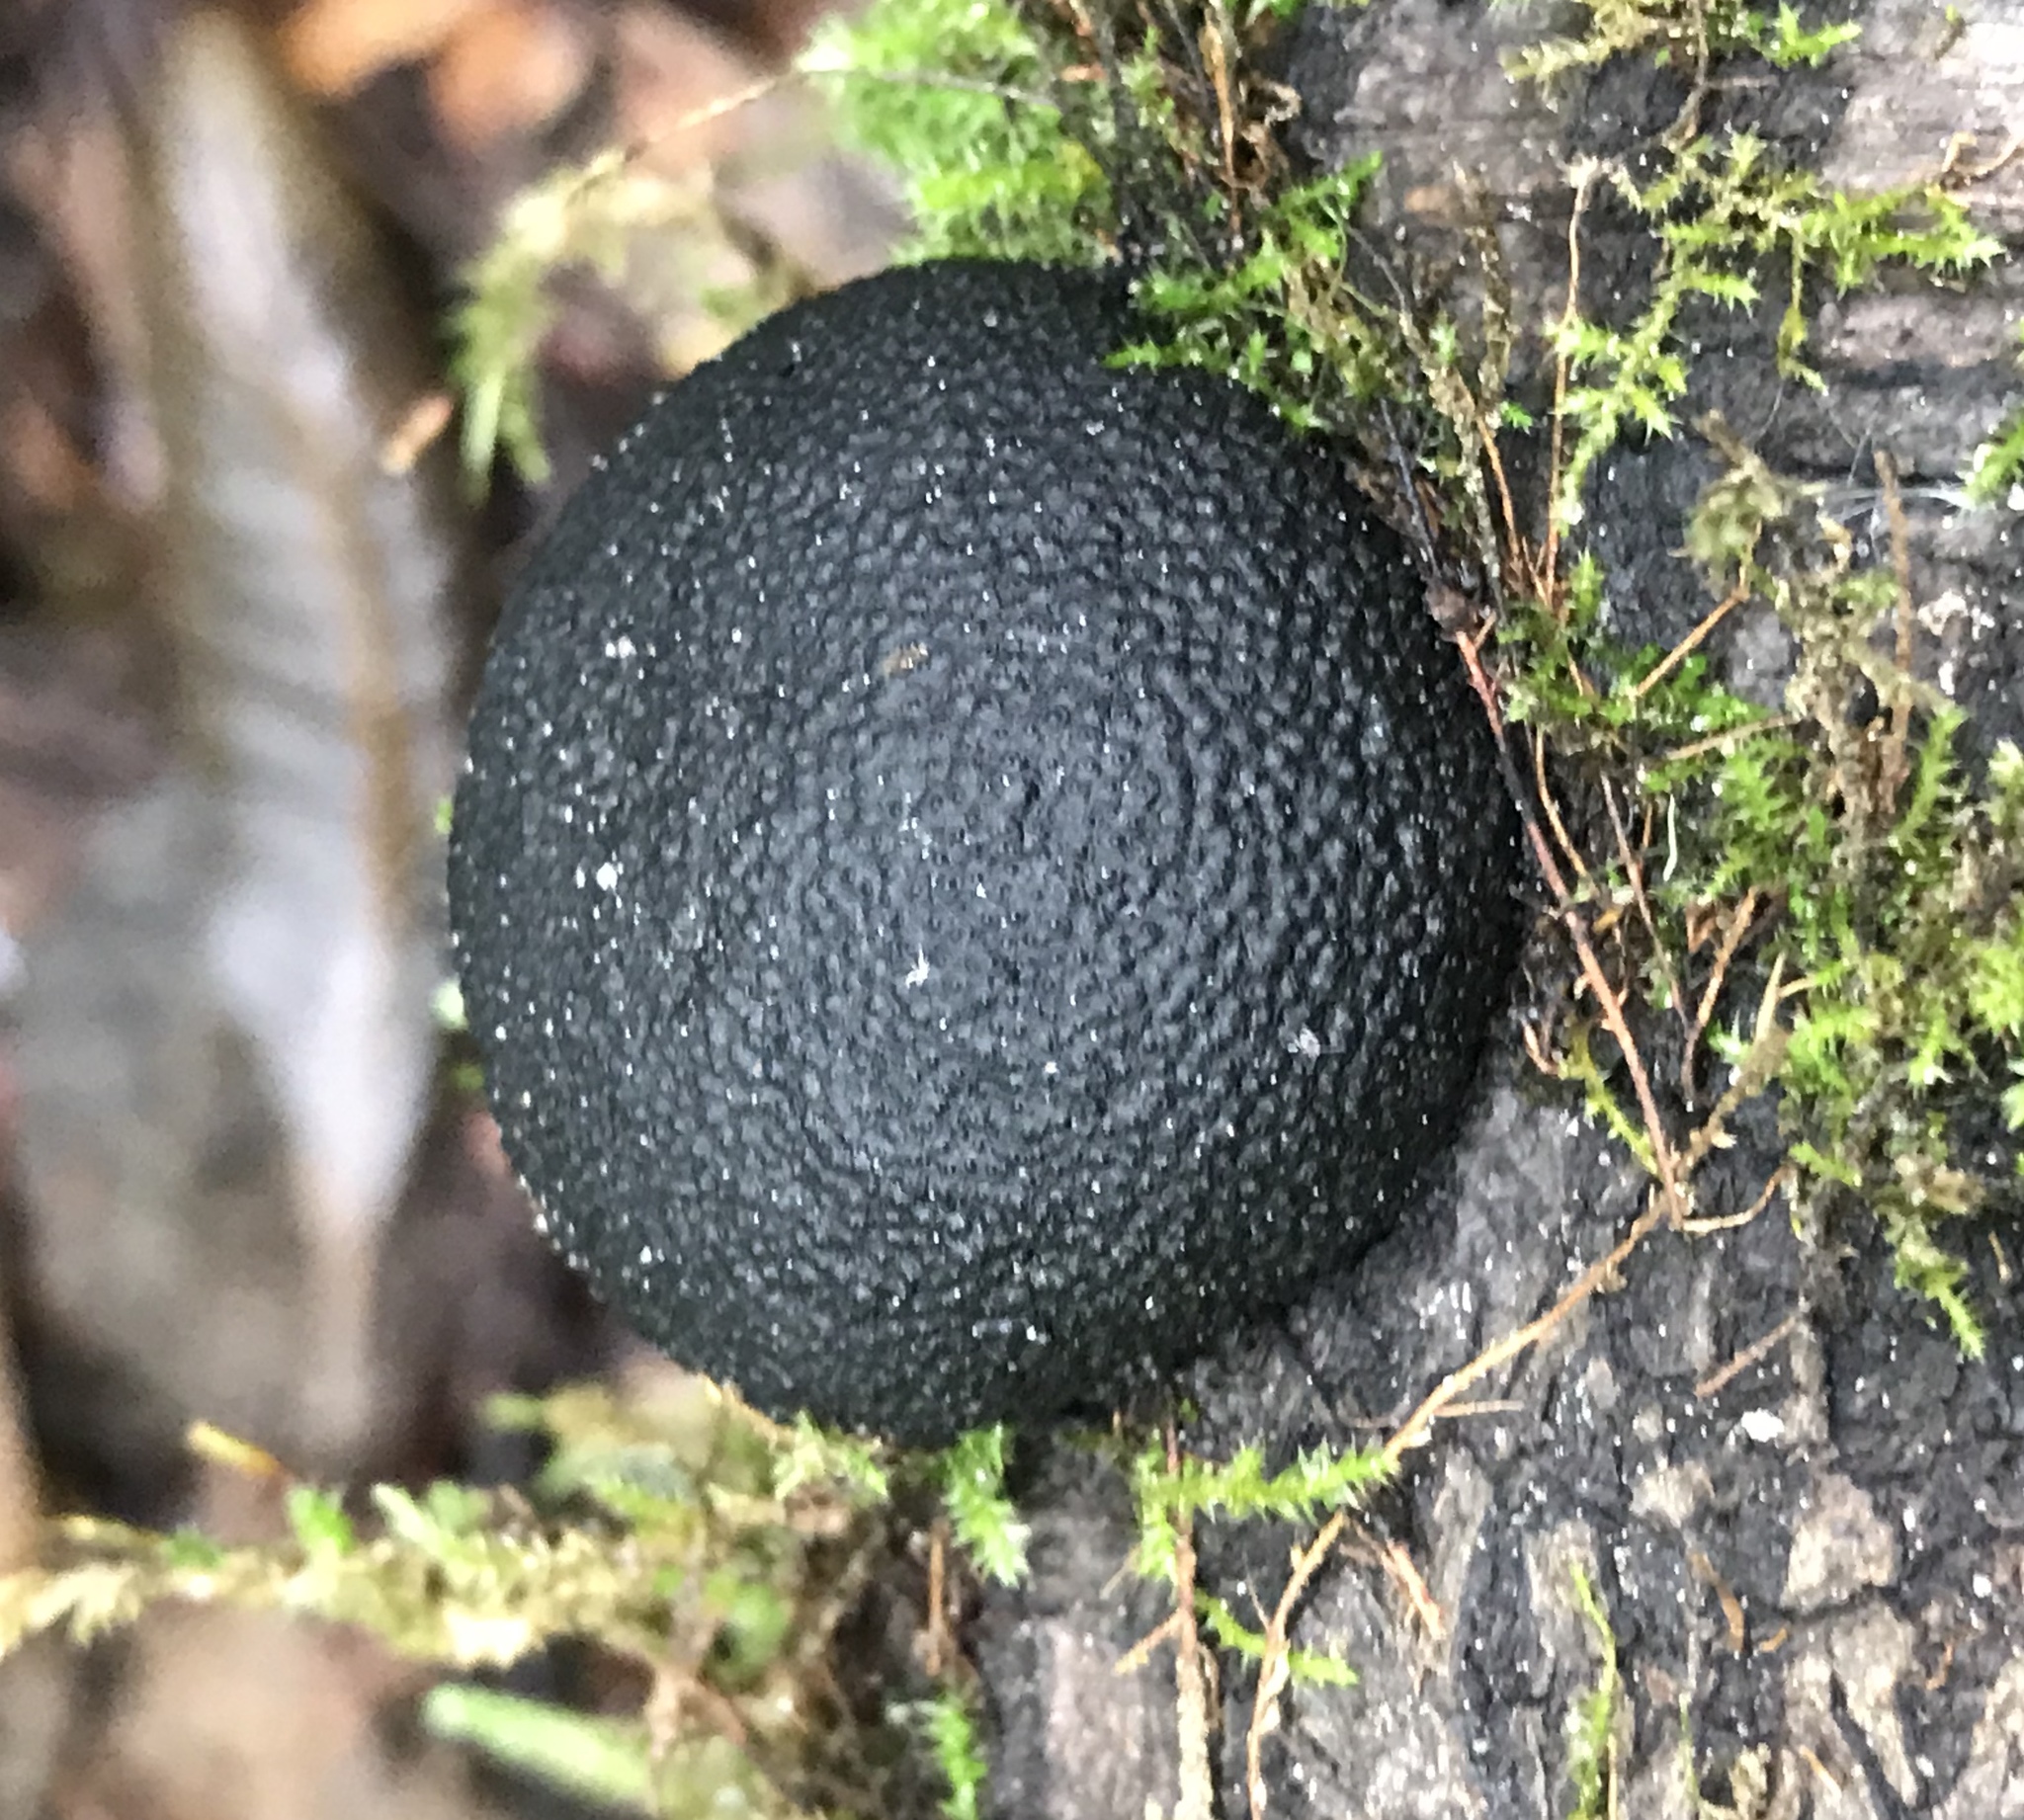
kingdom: Fungi
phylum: Ascomycota
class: Sordariomycetes
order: Xylariales
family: Hypoxylaceae
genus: Annulohypoxylon
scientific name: Annulohypoxylon thouarsianum
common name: Cramp balls
